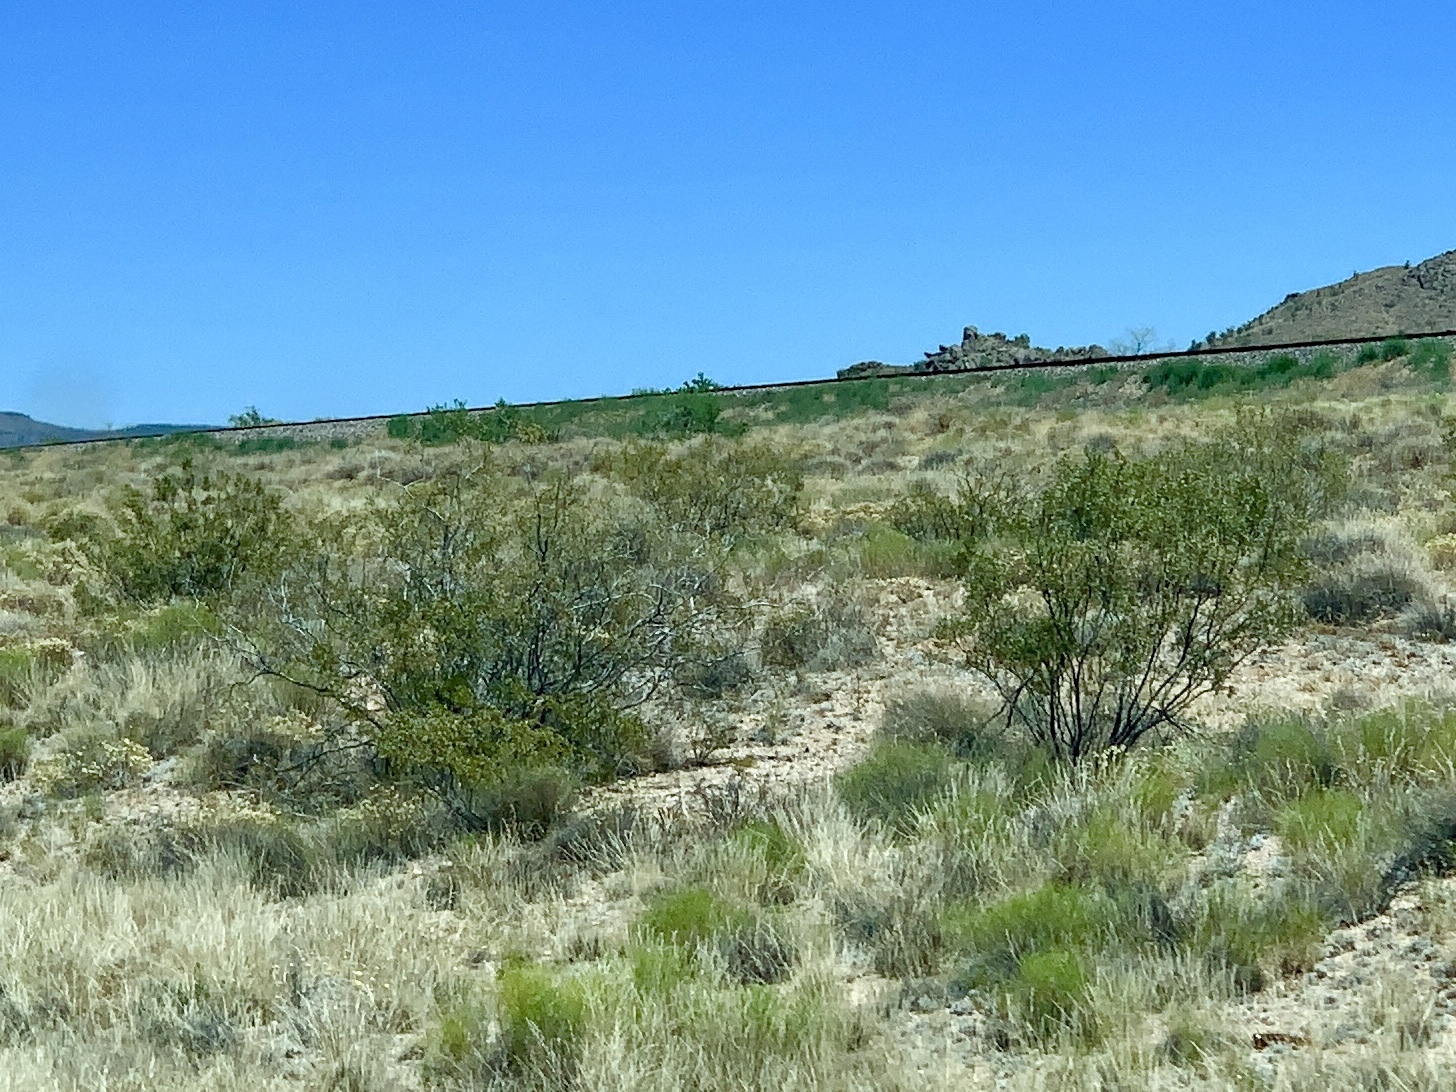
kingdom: Plantae
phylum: Tracheophyta
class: Magnoliopsida
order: Zygophyllales
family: Zygophyllaceae
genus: Larrea
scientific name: Larrea tridentata
